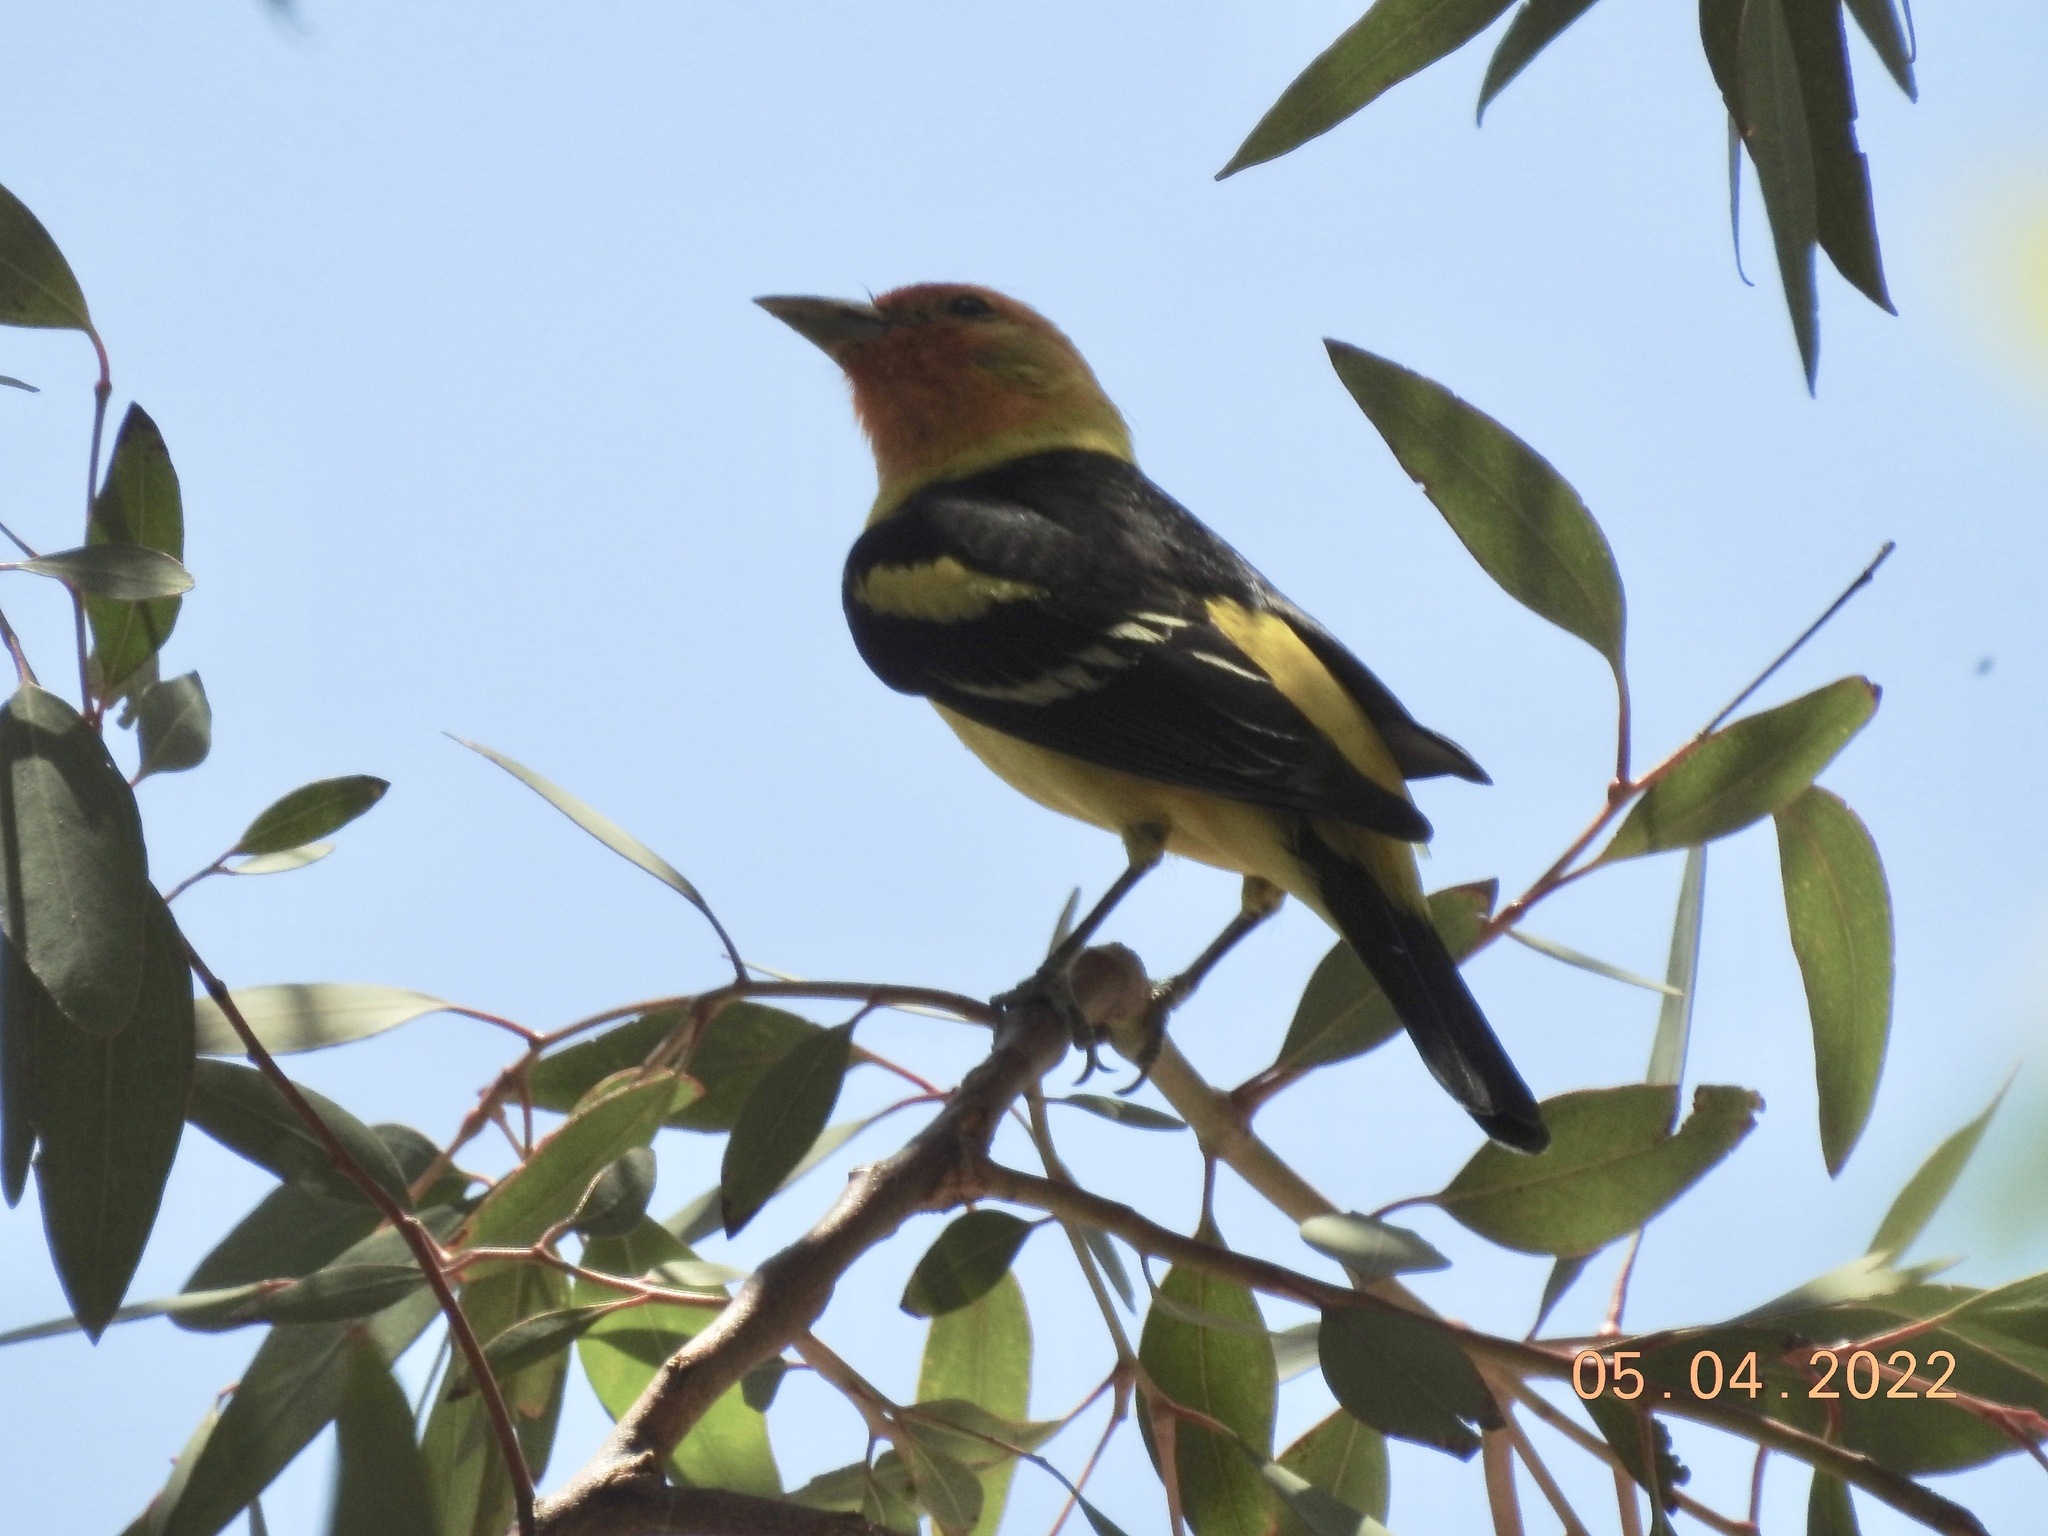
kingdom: Animalia
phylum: Chordata
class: Aves
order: Passeriformes
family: Cardinalidae
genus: Piranga
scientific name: Piranga ludoviciana
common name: Western tanager
